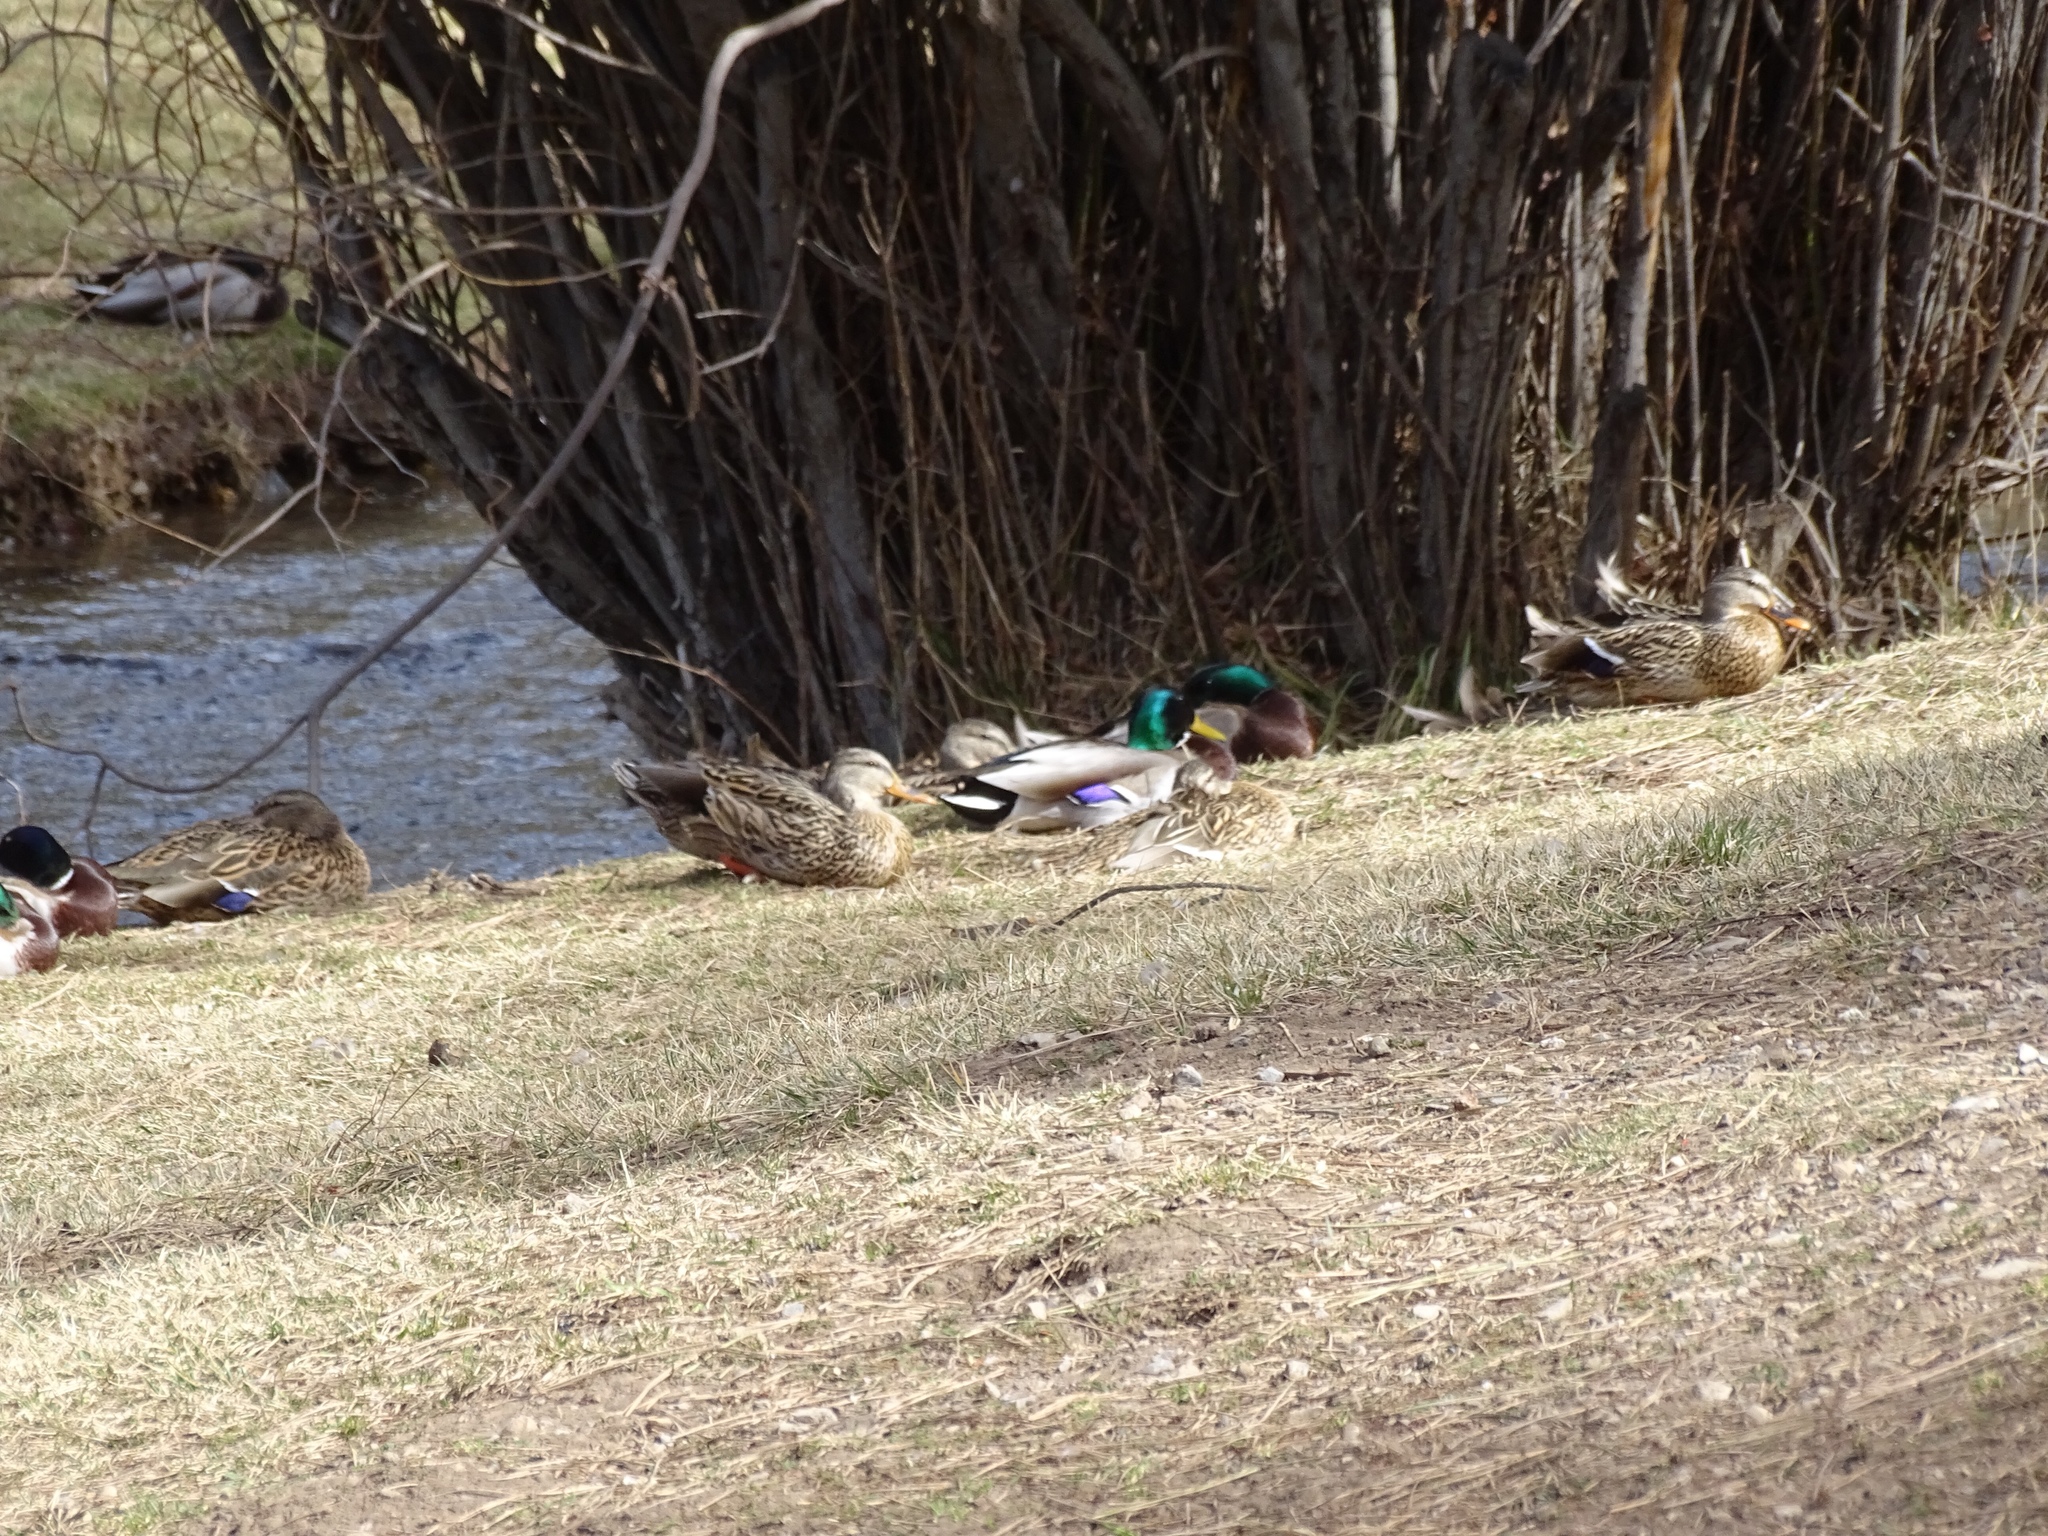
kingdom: Animalia
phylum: Chordata
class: Aves
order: Anseriformes
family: Anatidae
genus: Anas
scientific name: Anas platyrhynchos
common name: Mallard
